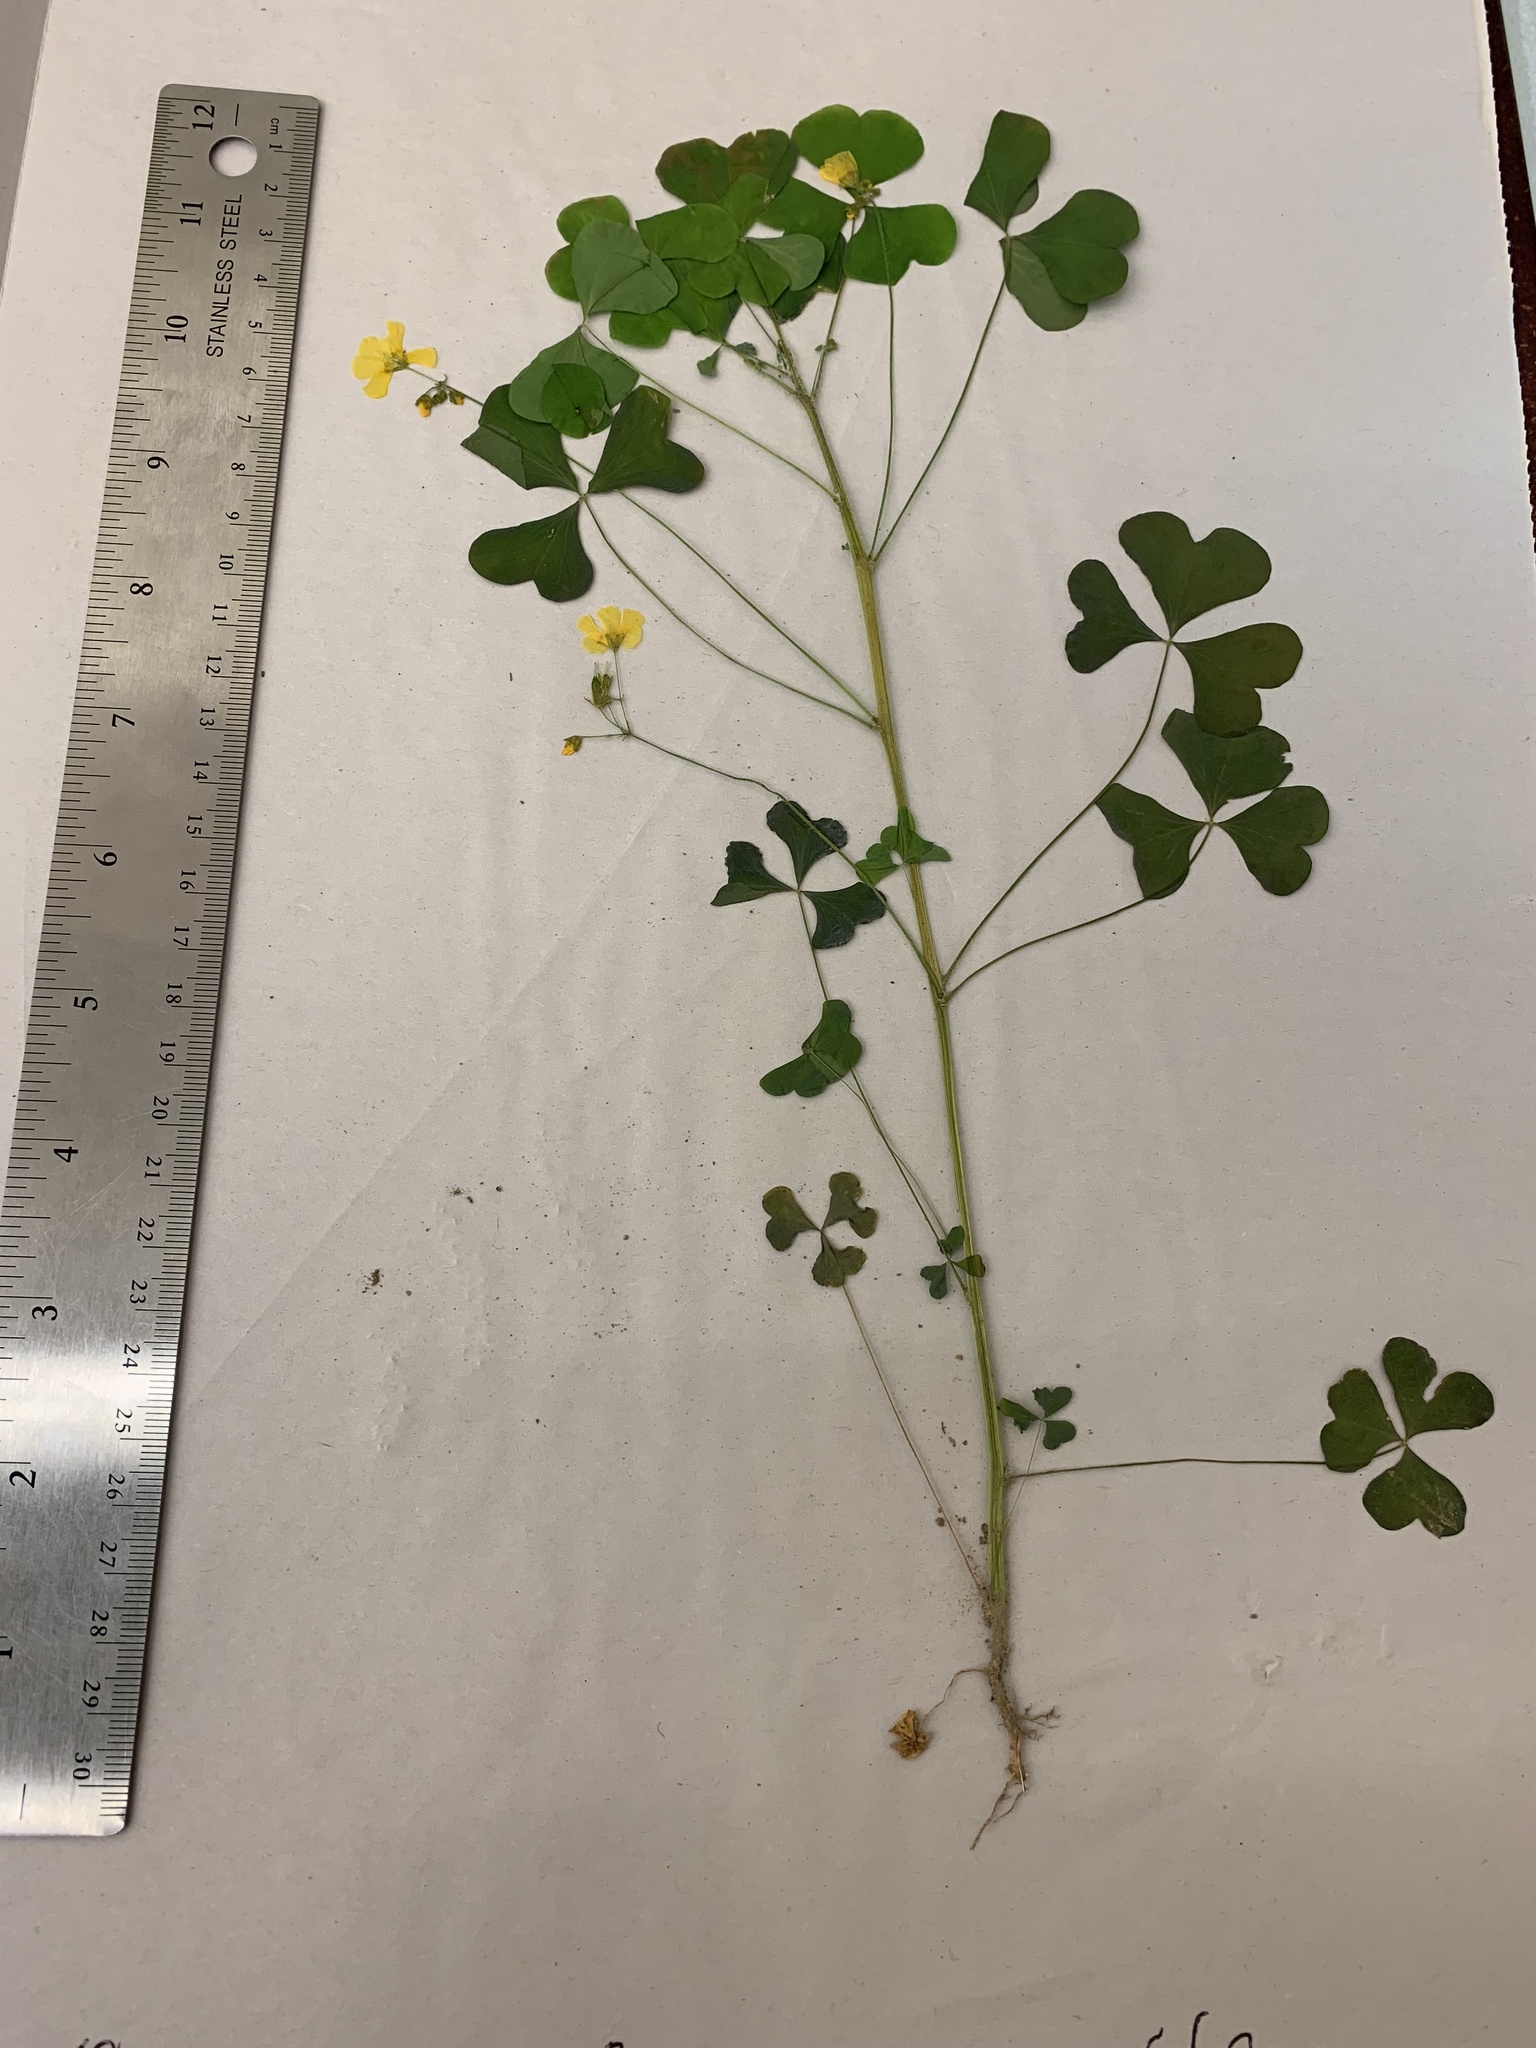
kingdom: Plantae
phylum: Tracheophyta
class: Magnoliopsida
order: Oxalidales
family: Oxalidaceae
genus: Oxalis
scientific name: Oxalis stricta
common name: Upright yellow-sorrel
